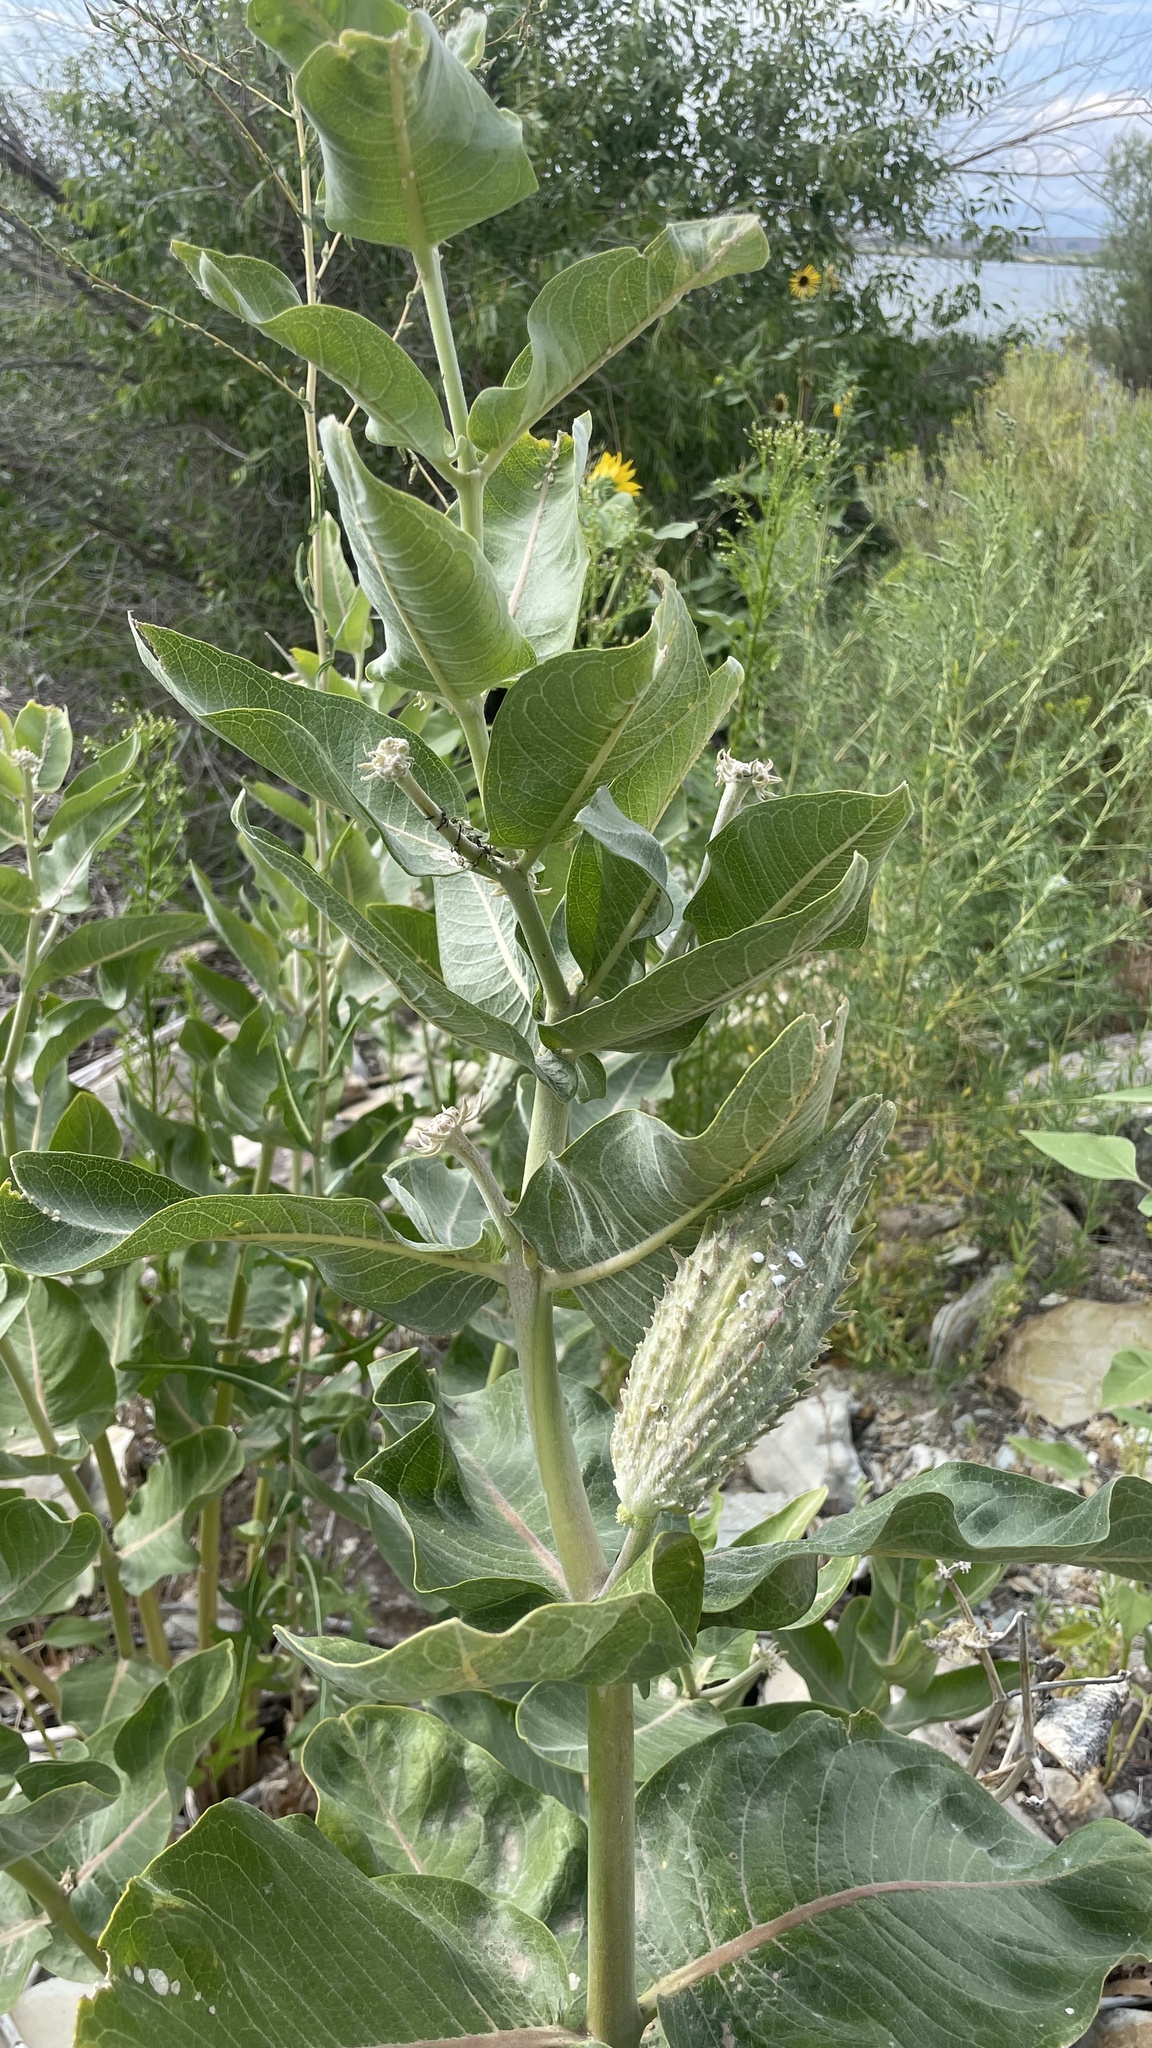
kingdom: Plantae
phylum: Tracheophyta
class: Magnoliopsida
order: Gentianales
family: Apocynaceae
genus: Asclepias
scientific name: Asclepias speciosa
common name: Showy milkweed
